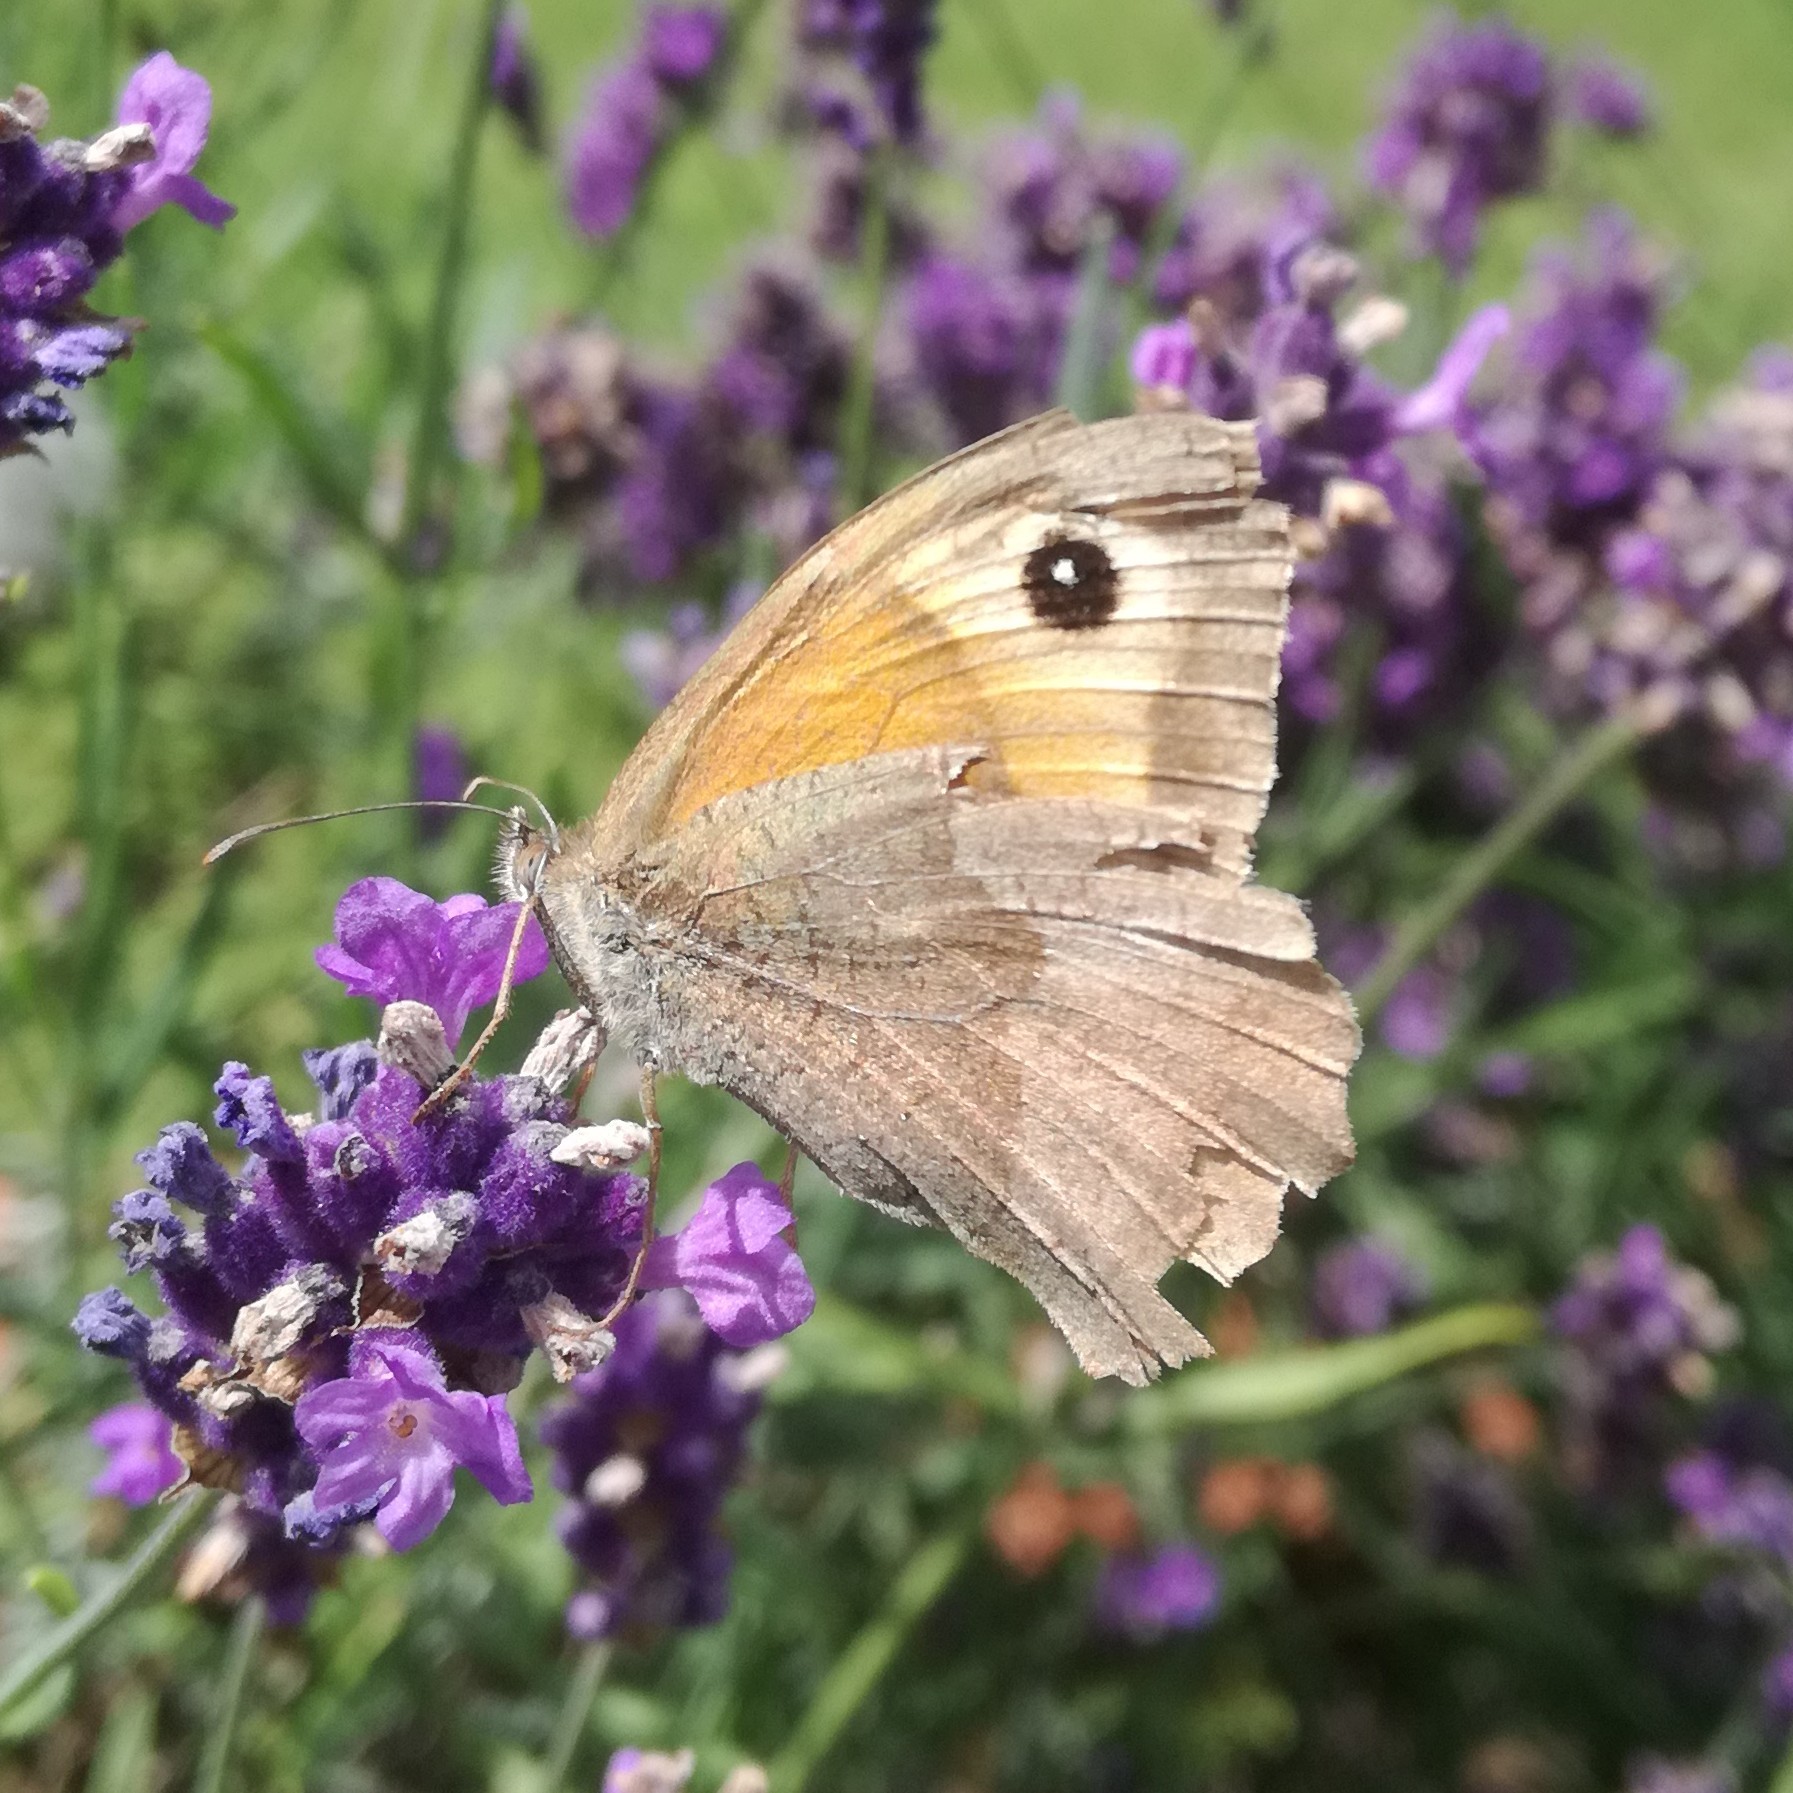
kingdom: Animalia
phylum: Arthropoda
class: Insecta
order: Lepidoptera
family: Nymphalidae
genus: Maniola
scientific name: Maniola jurtina
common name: Meadow brown
